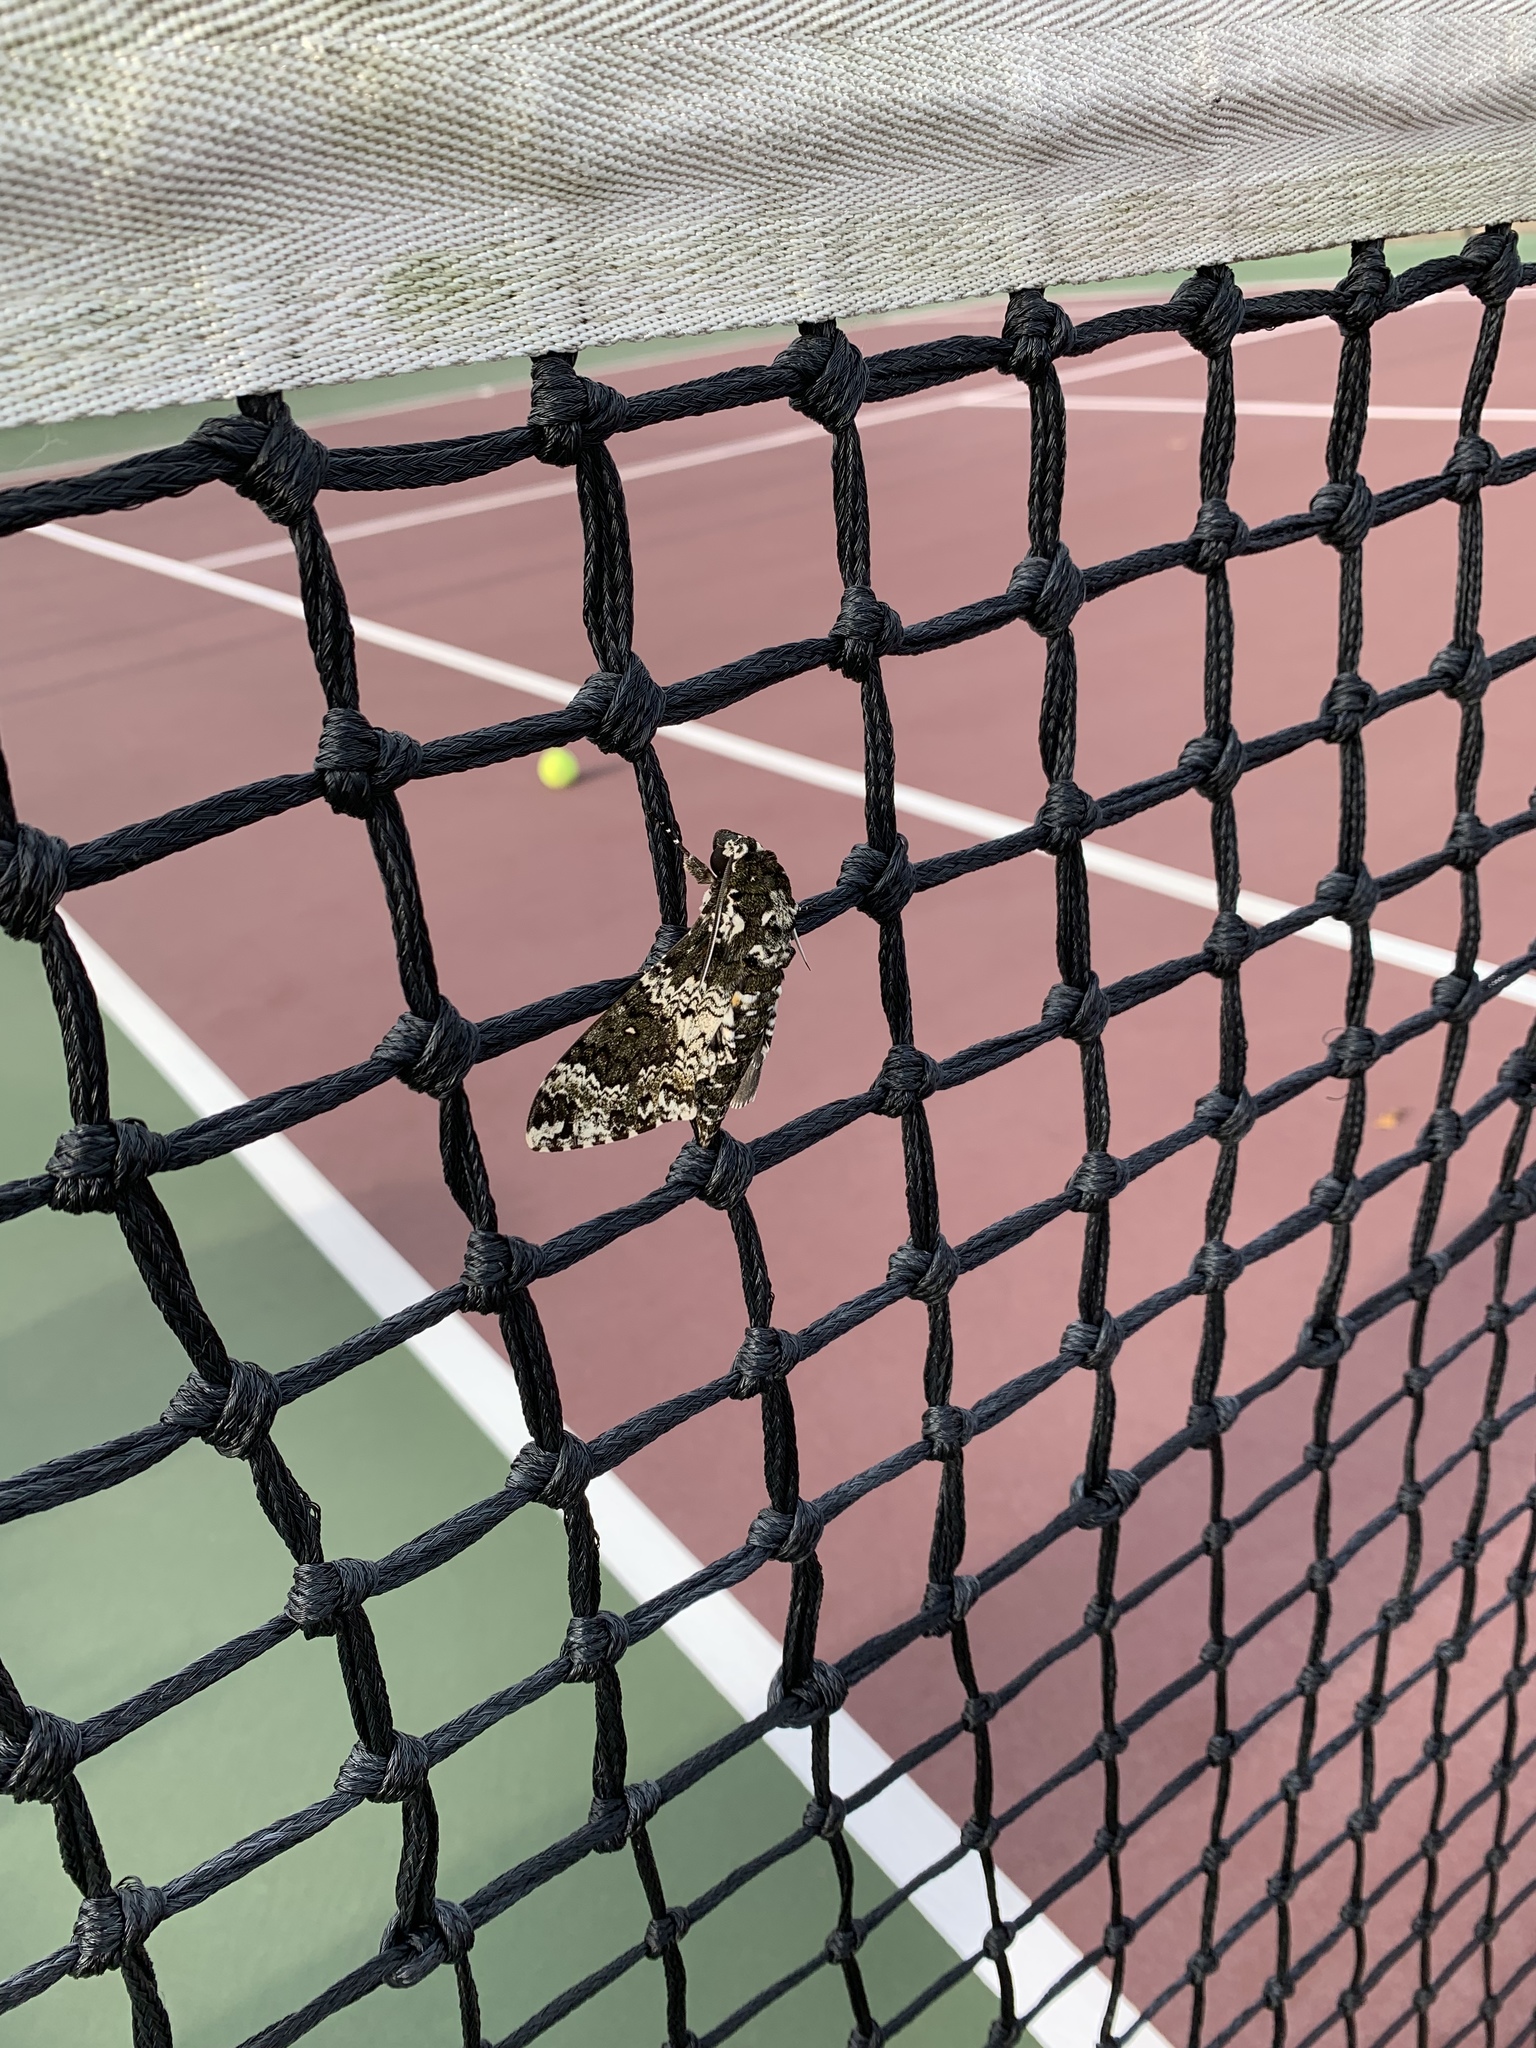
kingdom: Animalia
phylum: Arthropoda
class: Insecta
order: Lepidoptera
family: Sphingidae
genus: Manduca
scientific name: Manduca rustica
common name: Rustic sphinx
